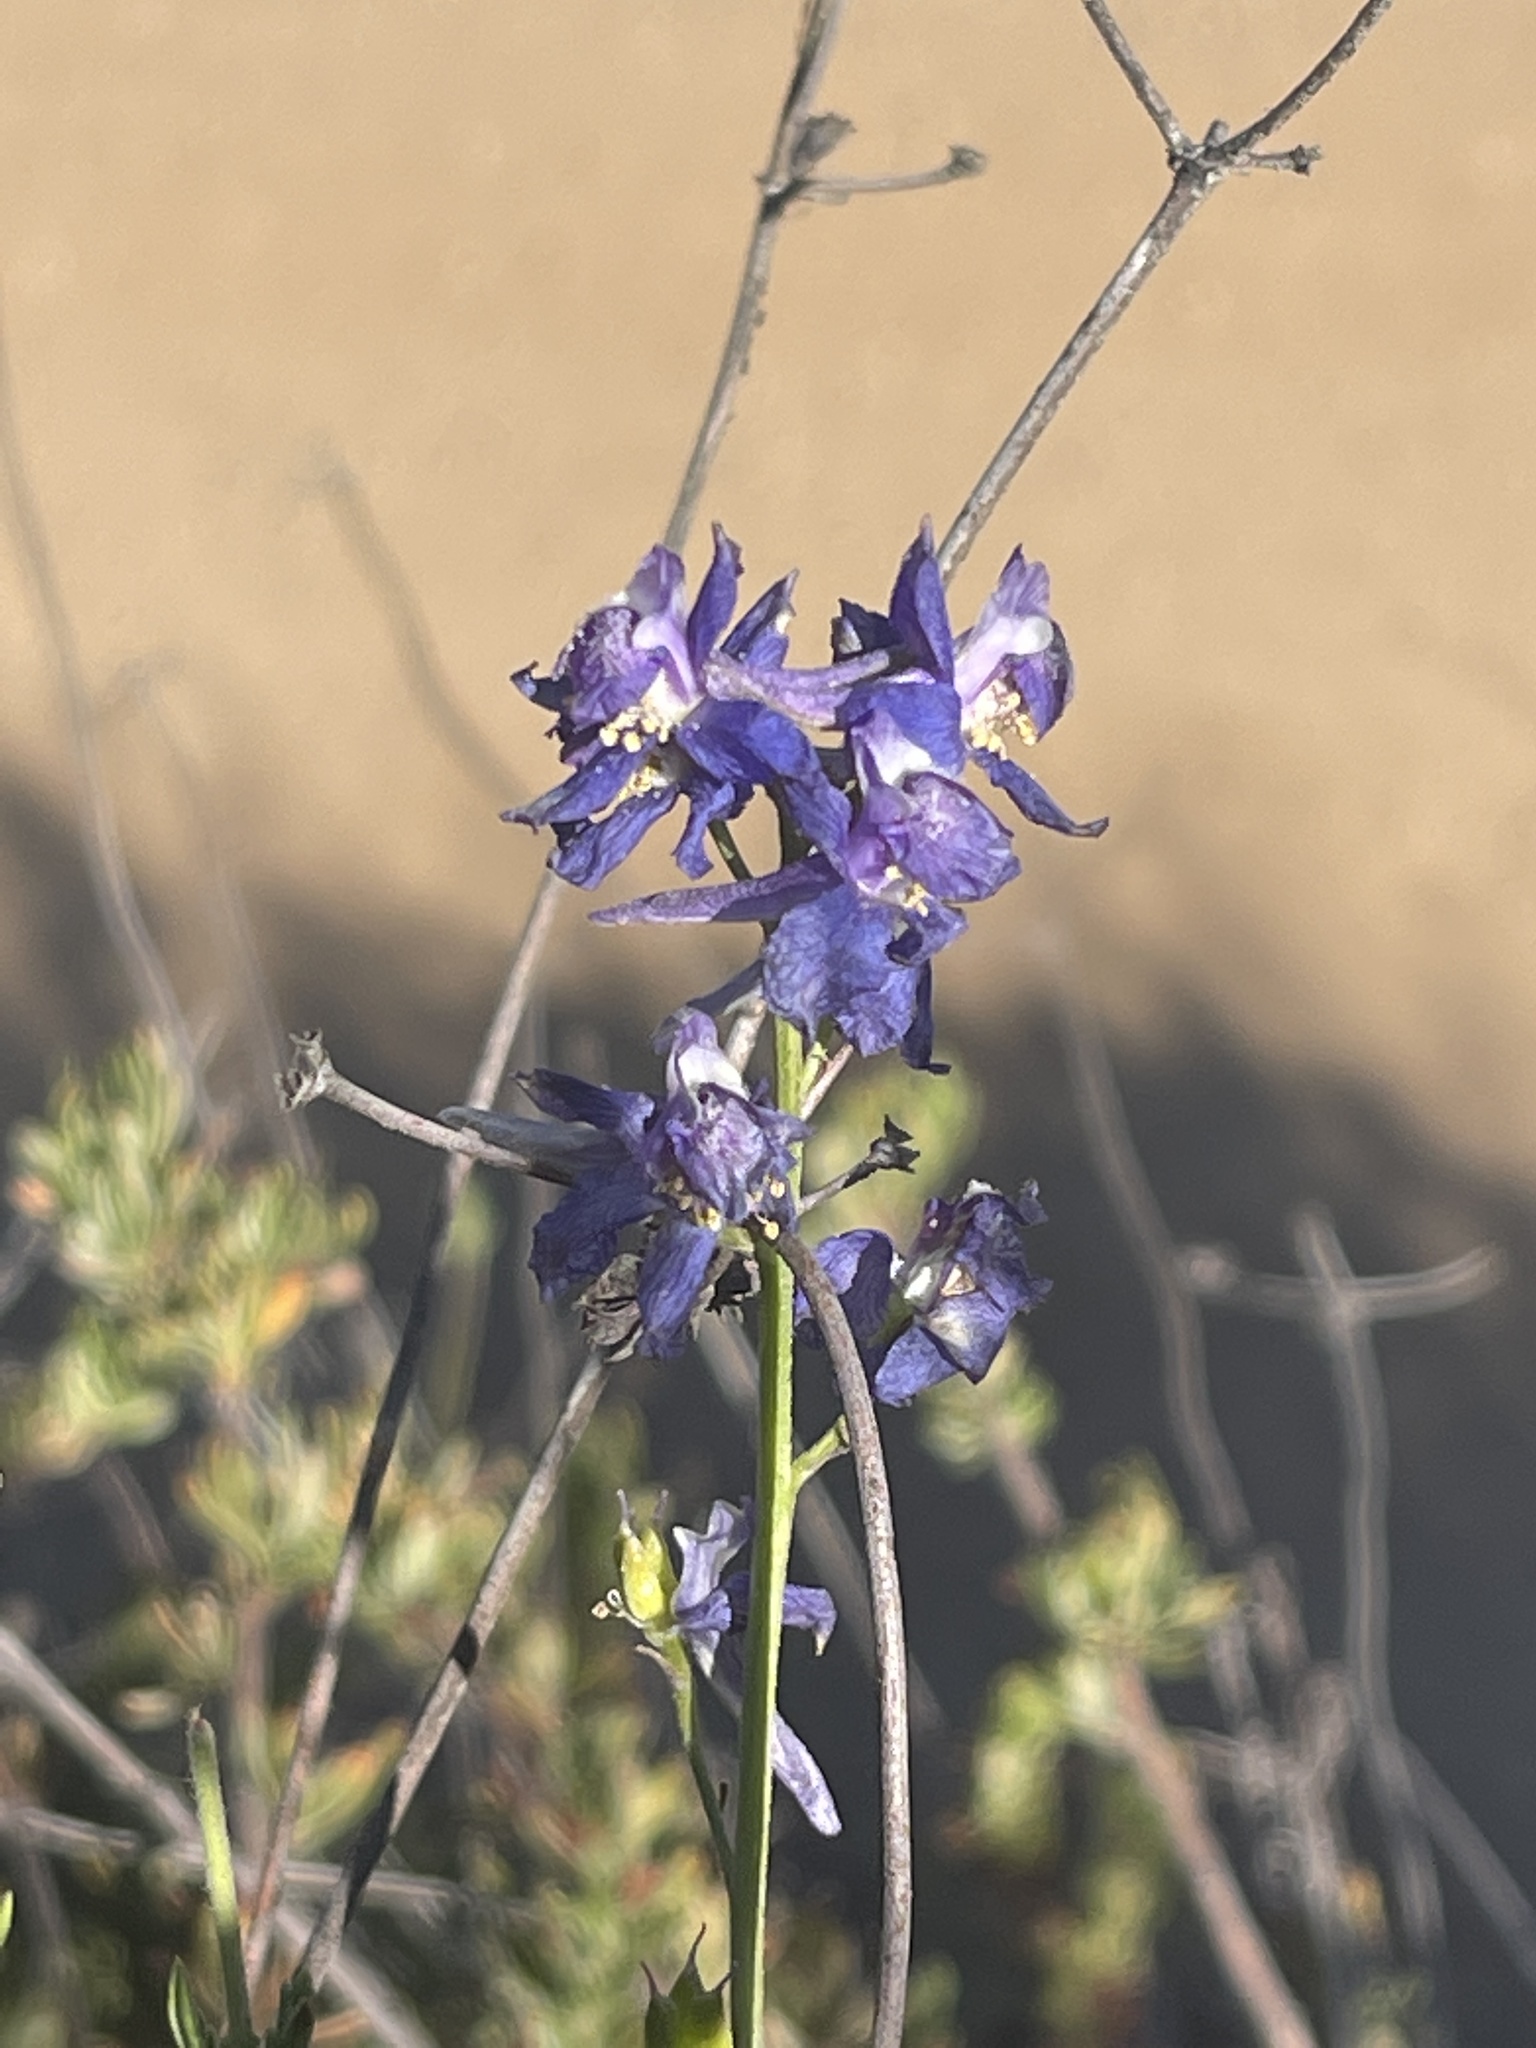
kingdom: Plantae
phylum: Tracheophyta
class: Magnoliopsida
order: Ranunculales
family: Ranunculaceae
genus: Delphinium
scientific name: Delphinium parryi
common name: Parry's larkspur
